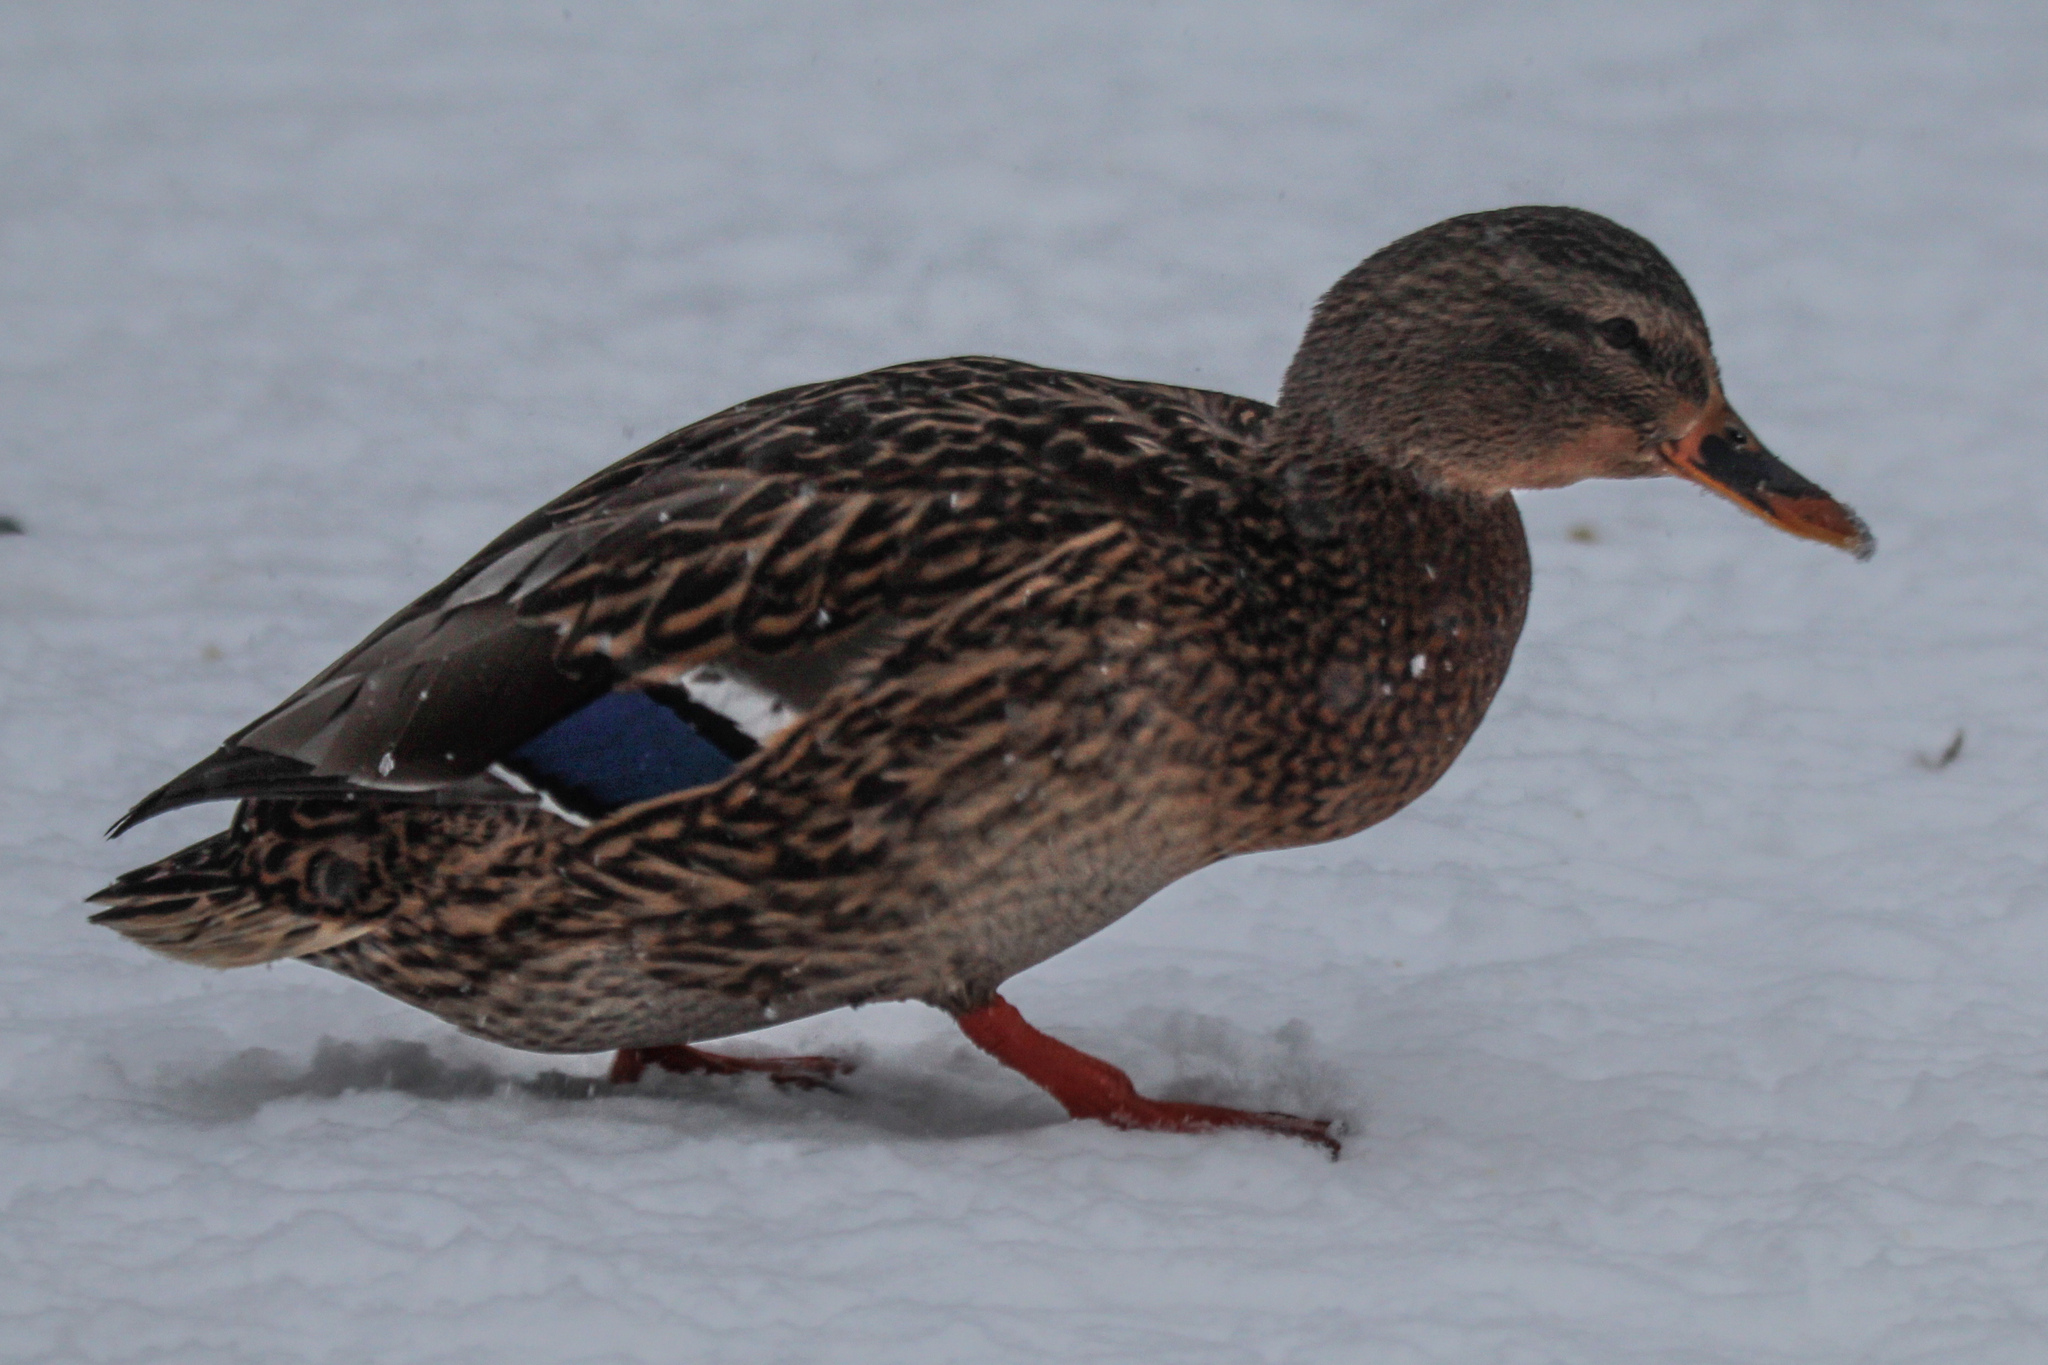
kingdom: Animalia
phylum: Chordata
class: Aves
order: Anseriformes
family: Anatidae
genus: Anas
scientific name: Anas platyrhynchos
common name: Mallard
